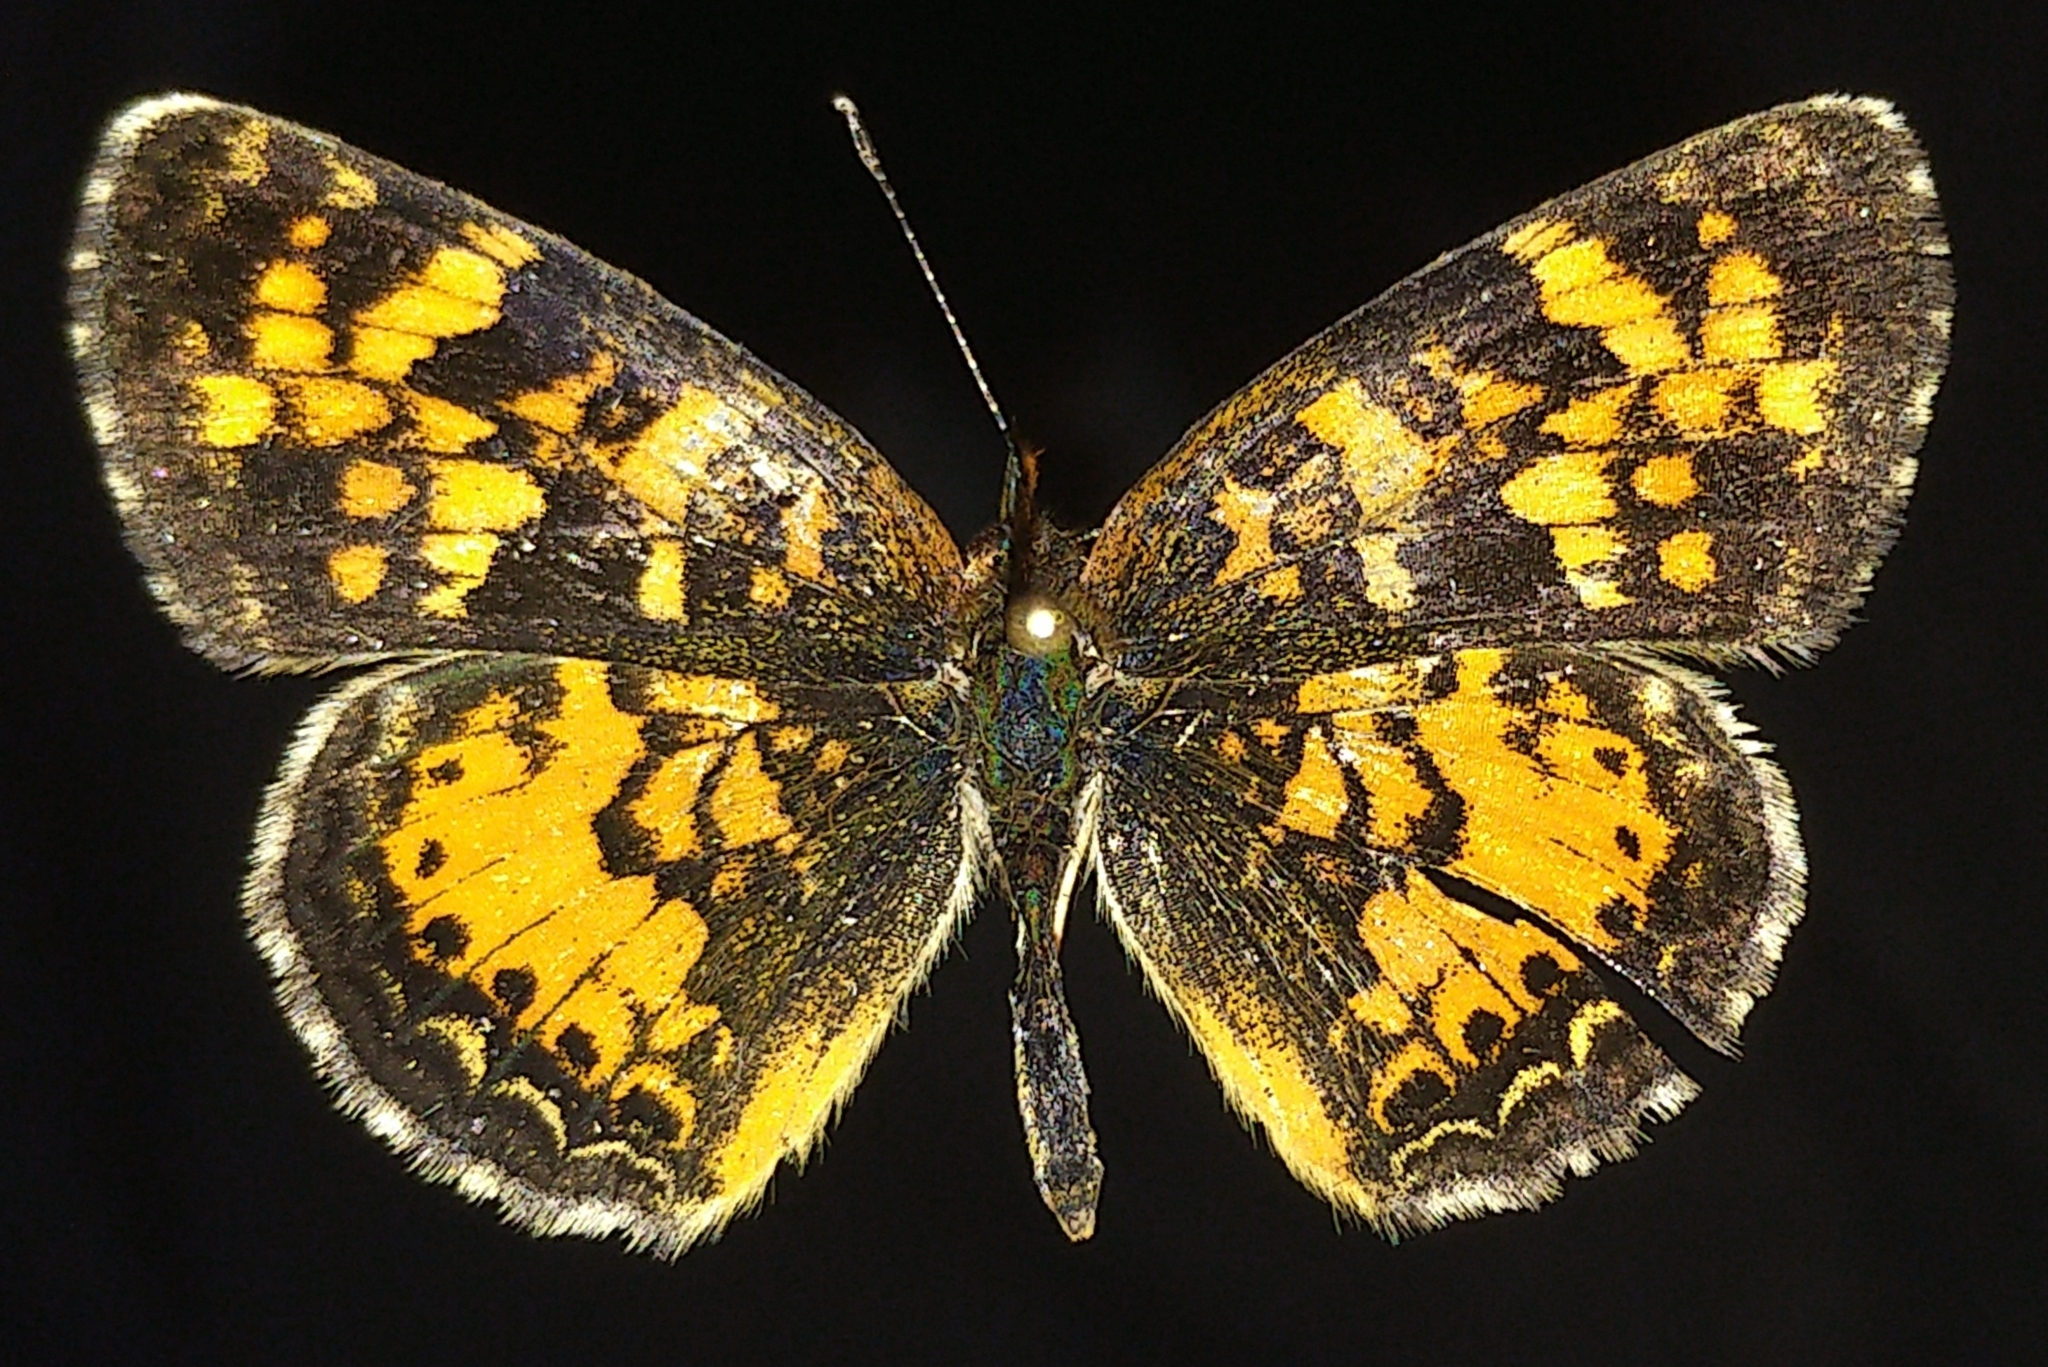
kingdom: Animalia
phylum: Arthropoda
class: Insecta
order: Lepidoptera
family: Nymphalidae
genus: Phyciodes
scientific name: Phyciodes batesii
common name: Tawny crescent
